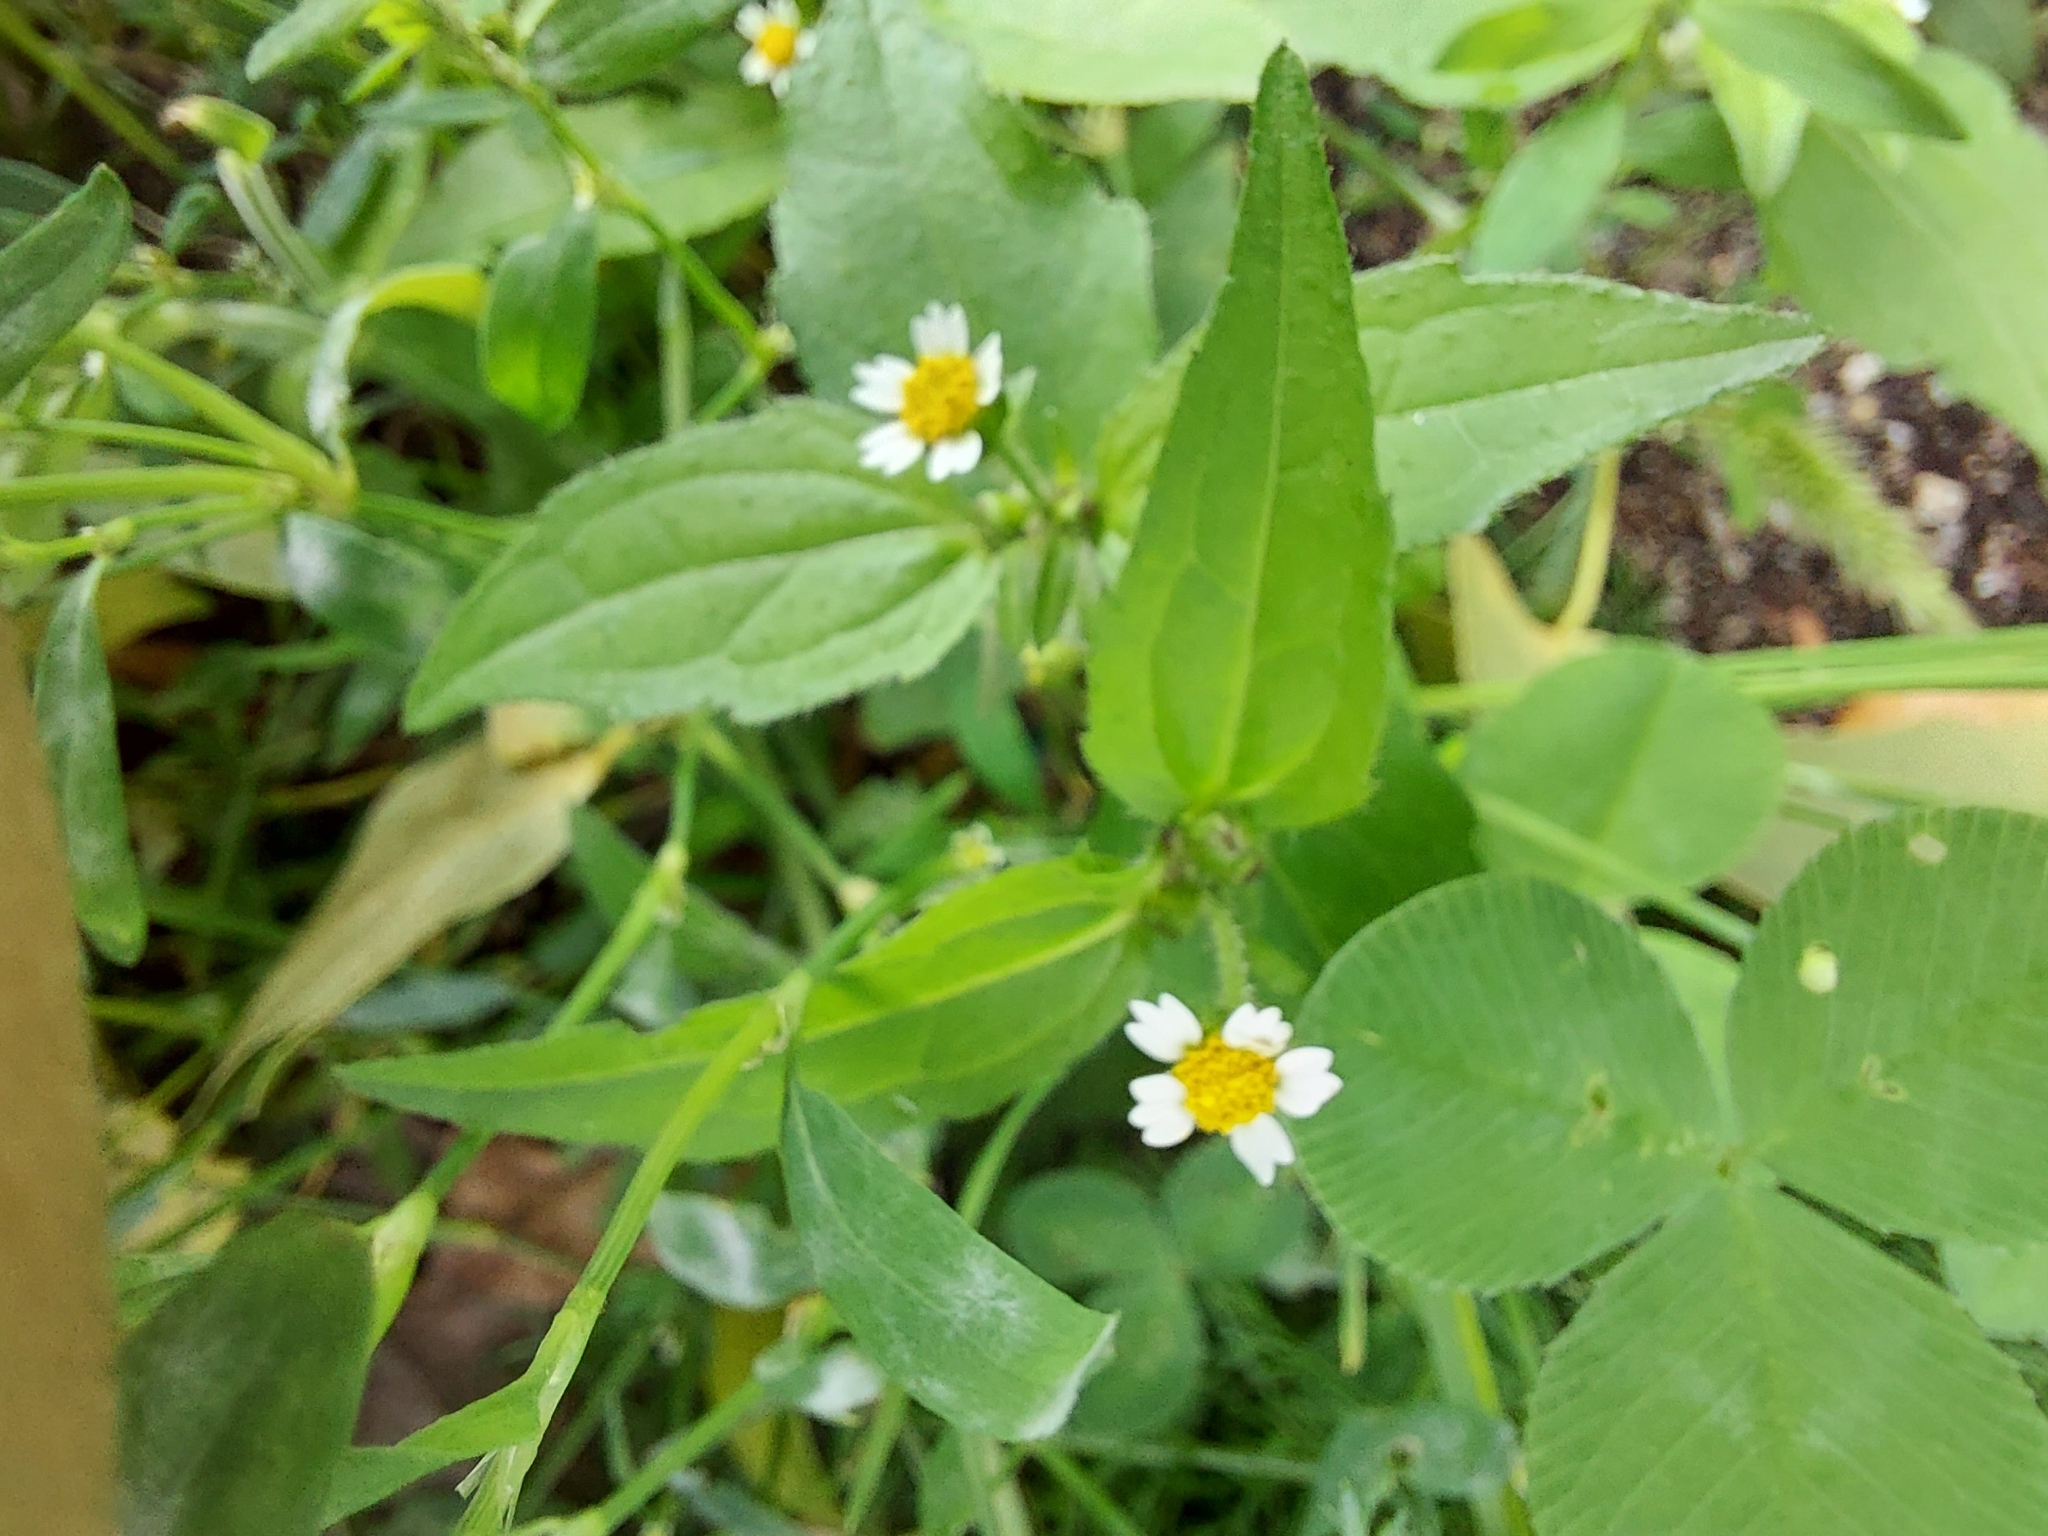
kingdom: Plantae
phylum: Tracheophyta
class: Magnoliopsida
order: Asterales
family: Asteraceae
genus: Galinsoga
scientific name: Galinsoga quadriradiata
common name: Shaggy soldier
